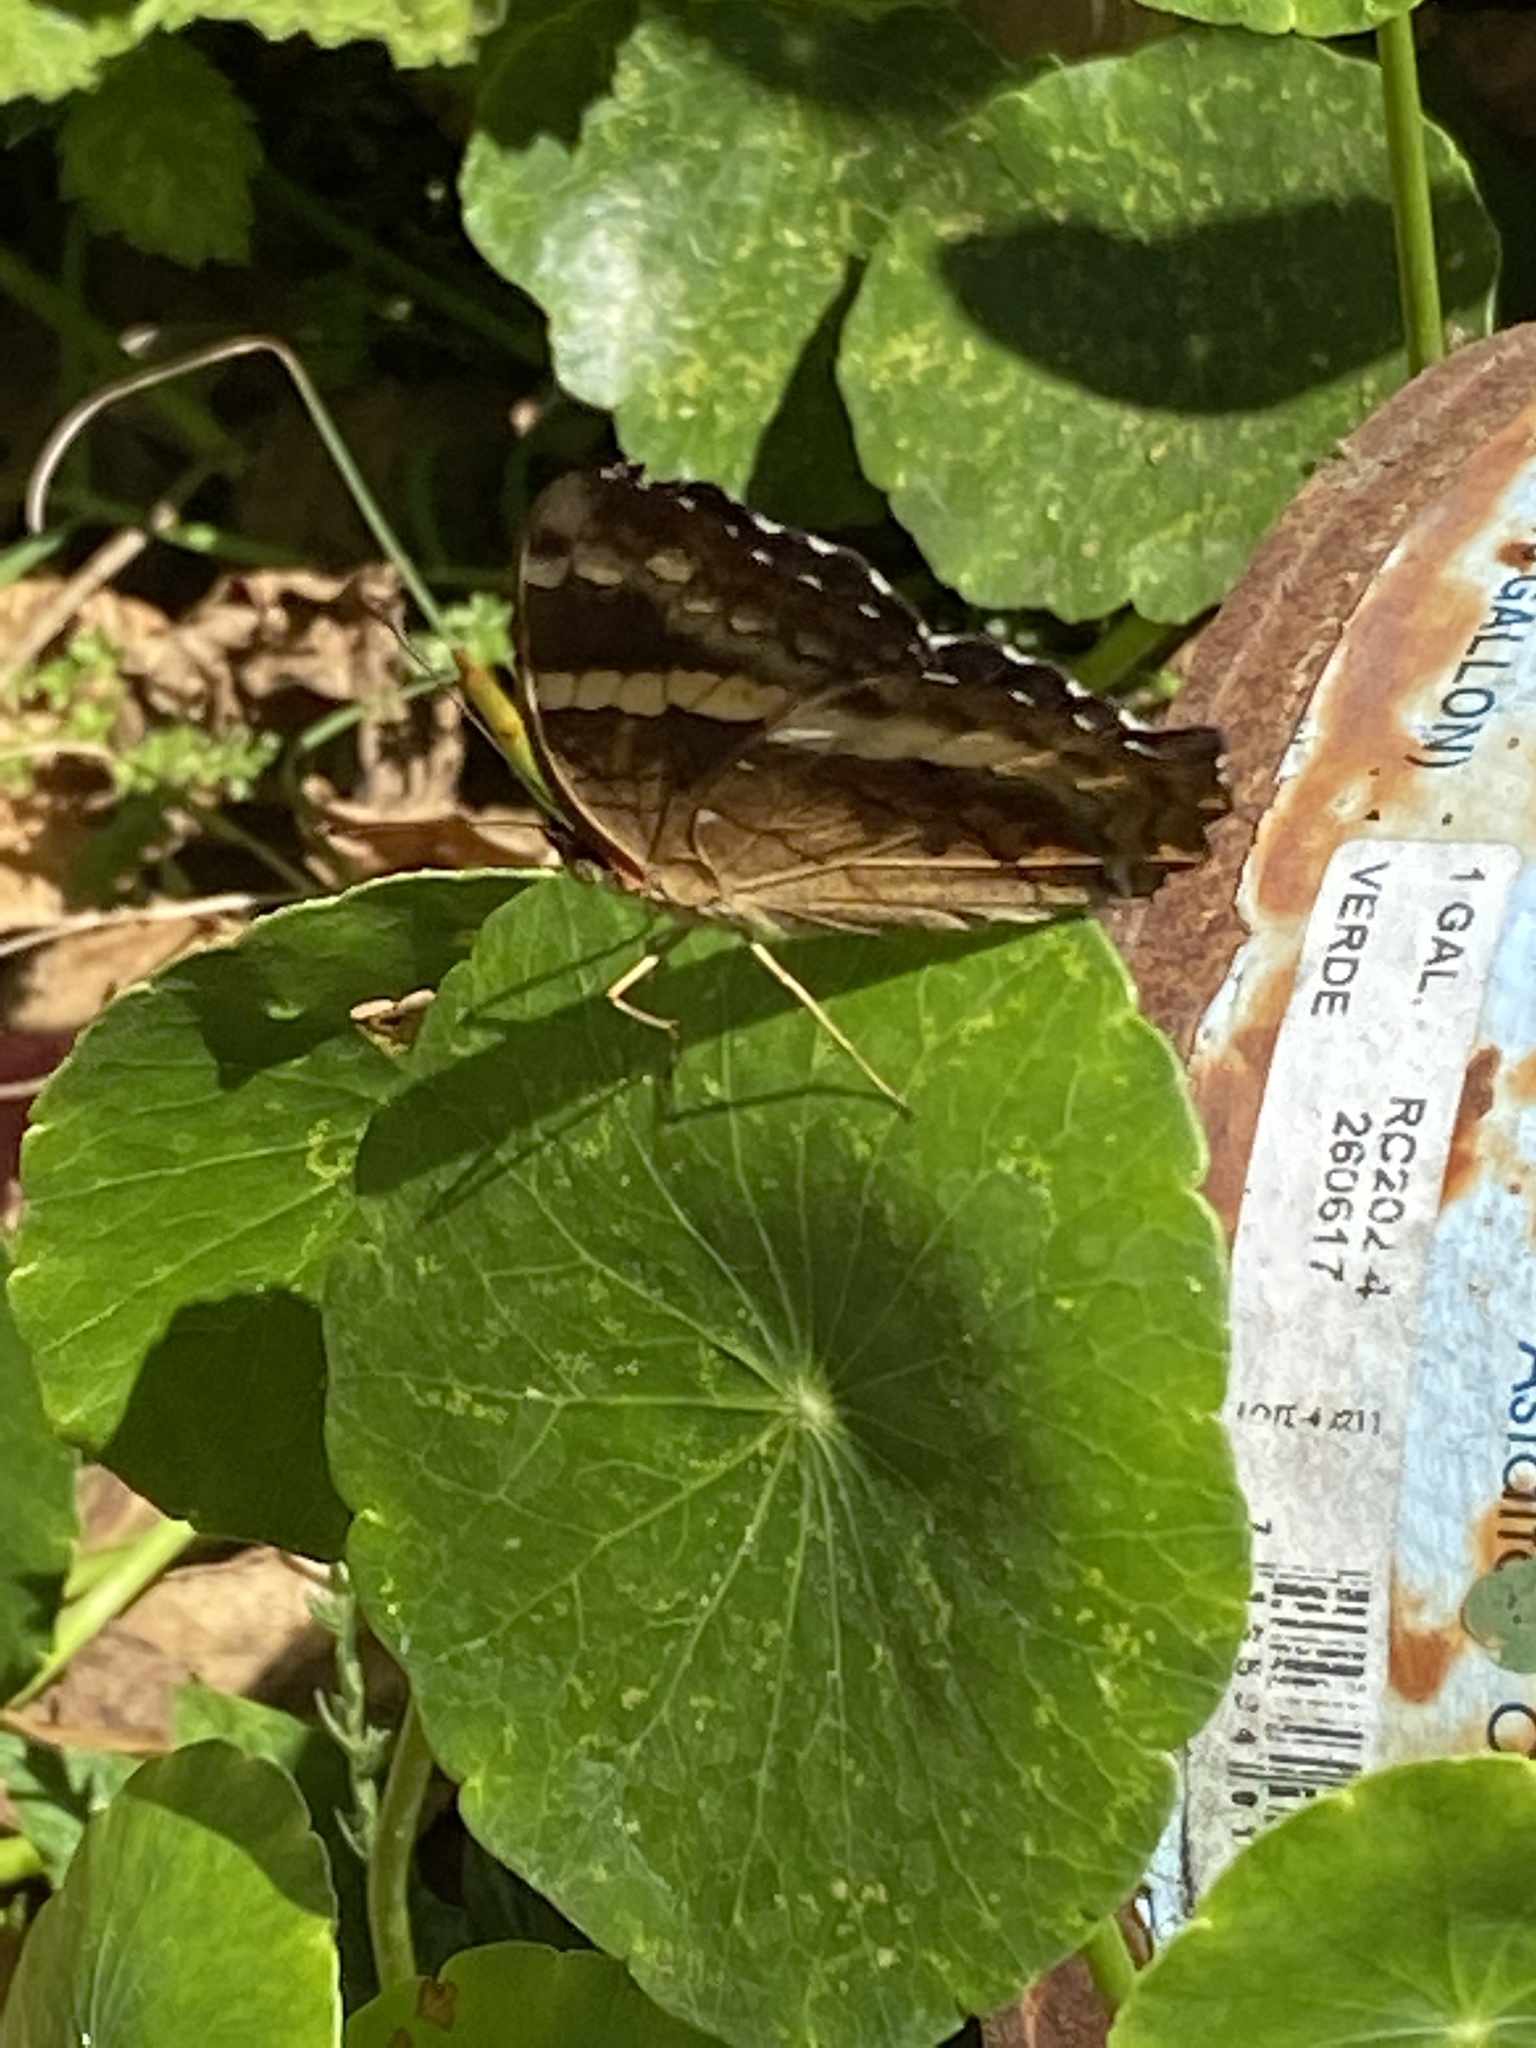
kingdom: Animalia
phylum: Arthropoda
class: Insecta
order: Lepidoptera
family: Nymphalidae
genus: Anartia
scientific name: Anartia fatima
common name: Banded peacock
